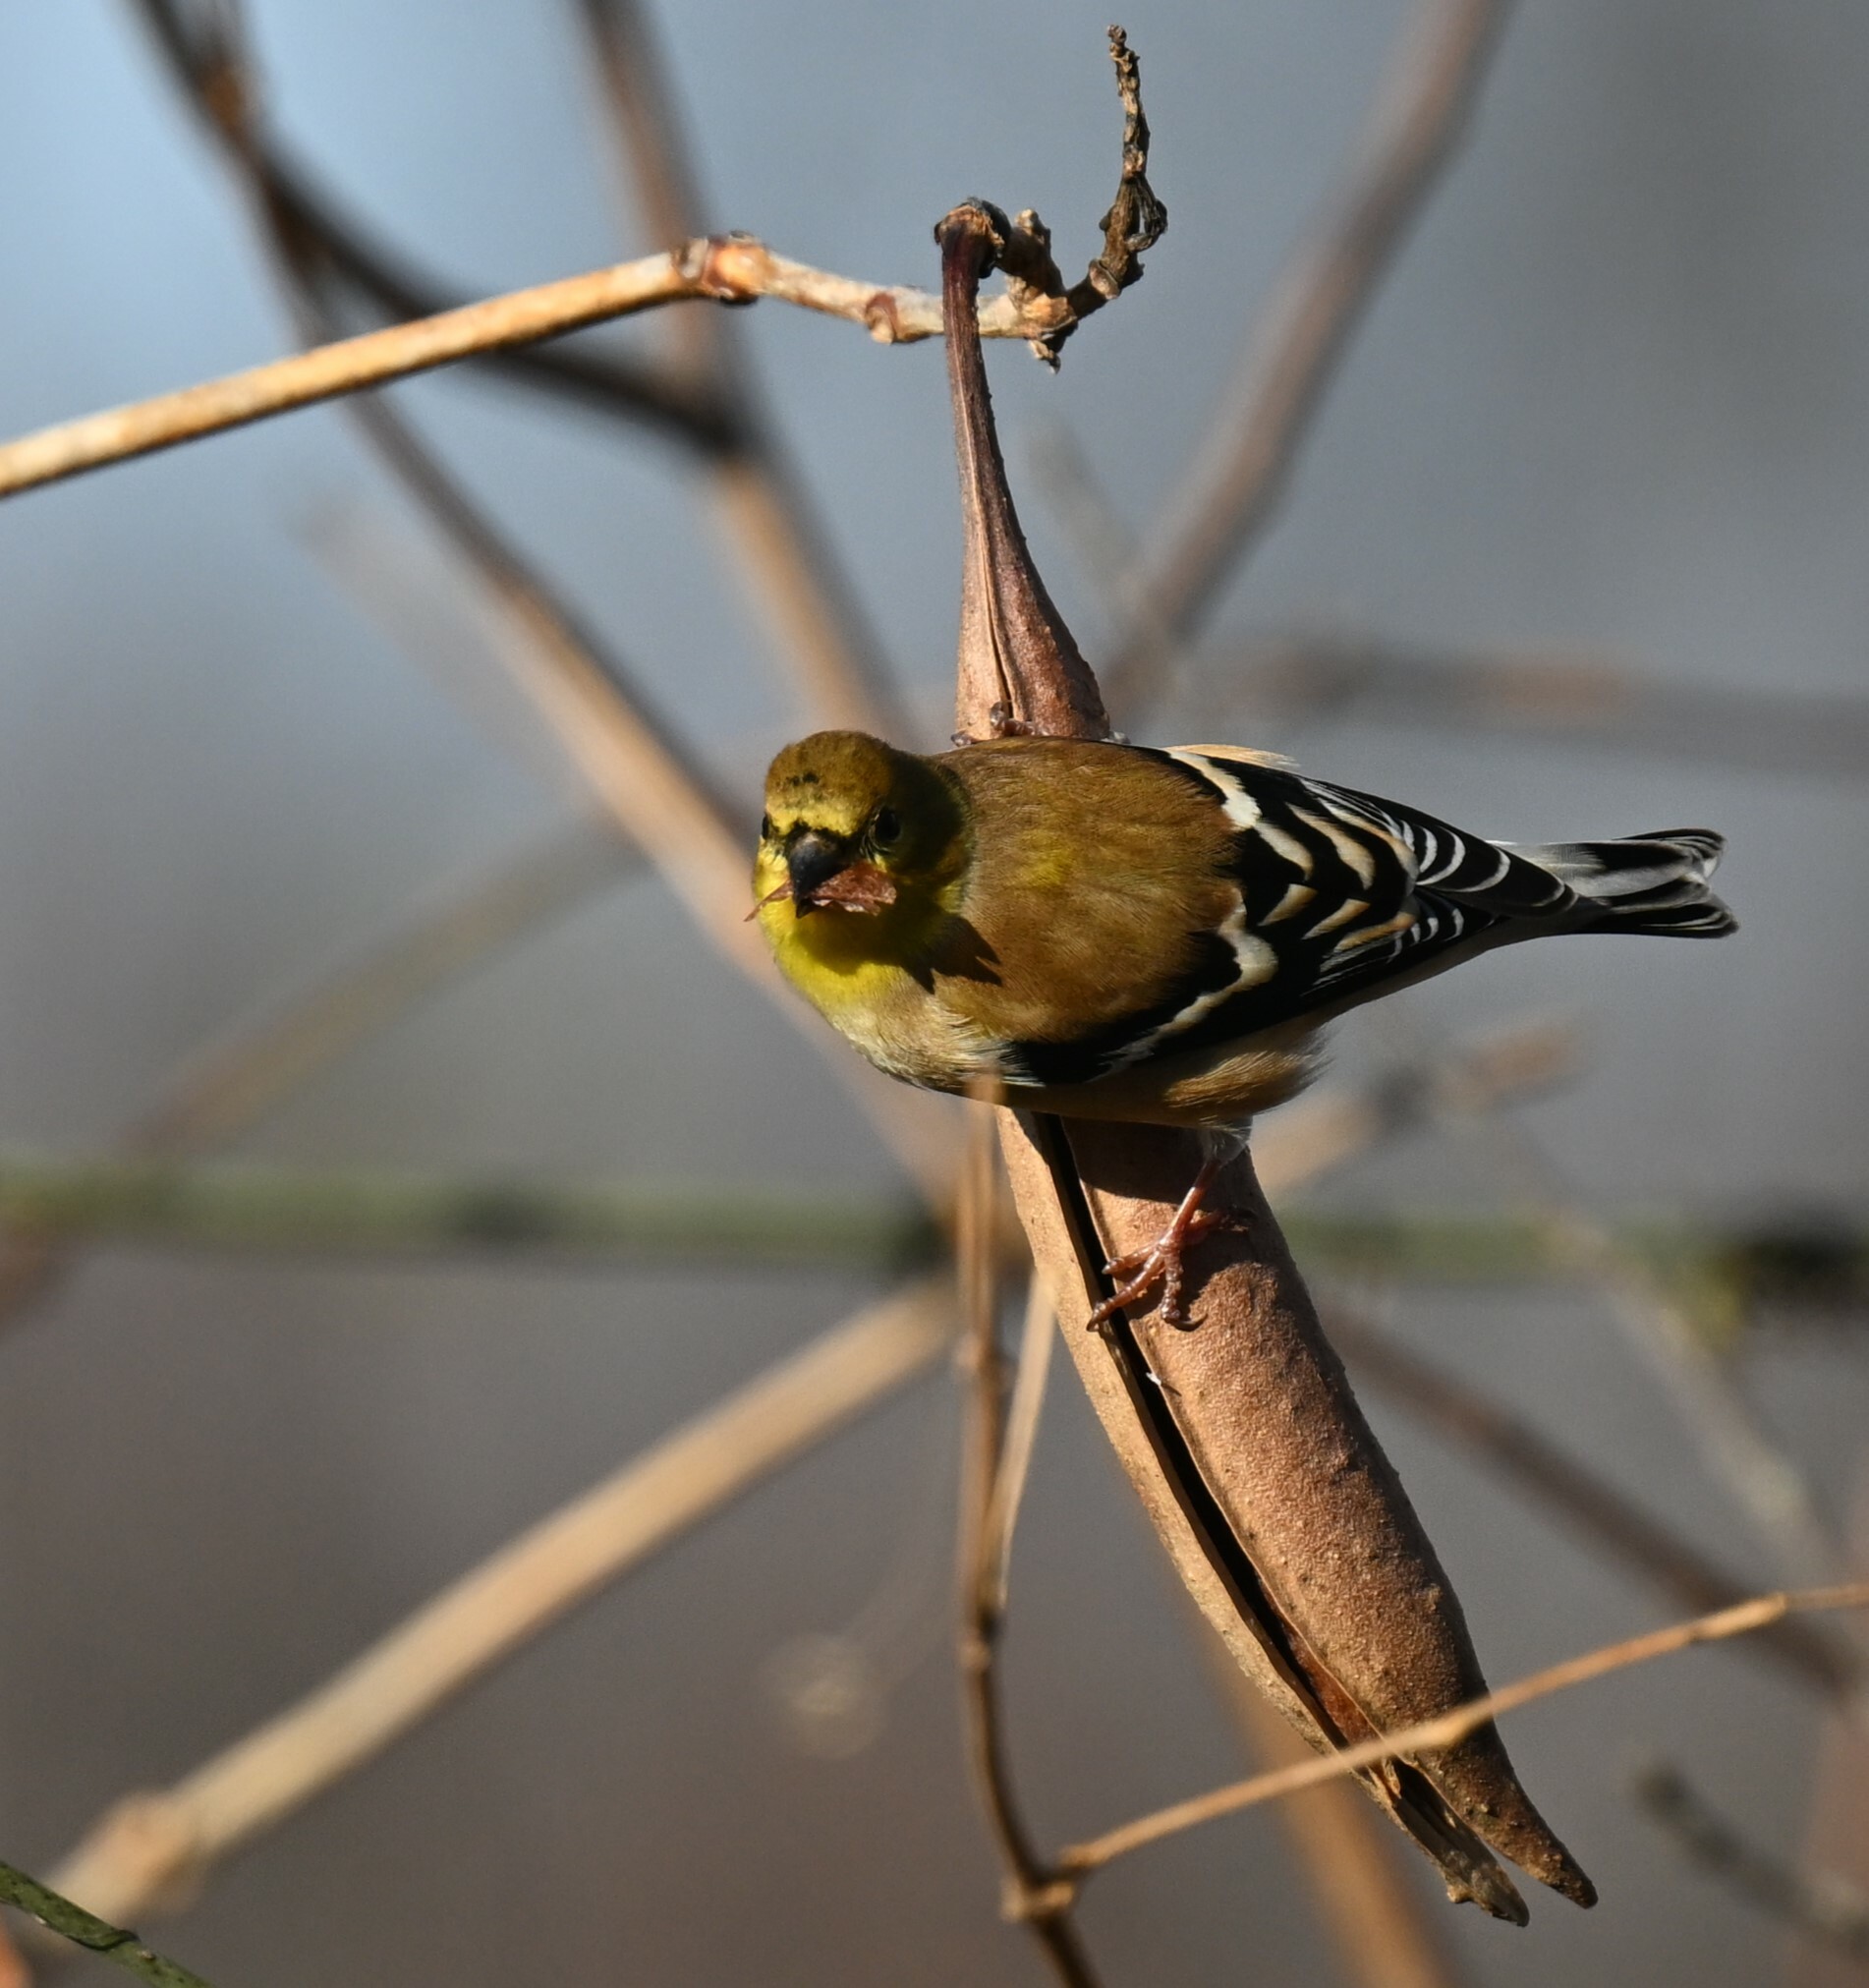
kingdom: Animalia
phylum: Chordata
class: Aves
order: Passeriformes
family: Fringillidae
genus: Spinus
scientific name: Spinus tristis
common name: American goldfinch
